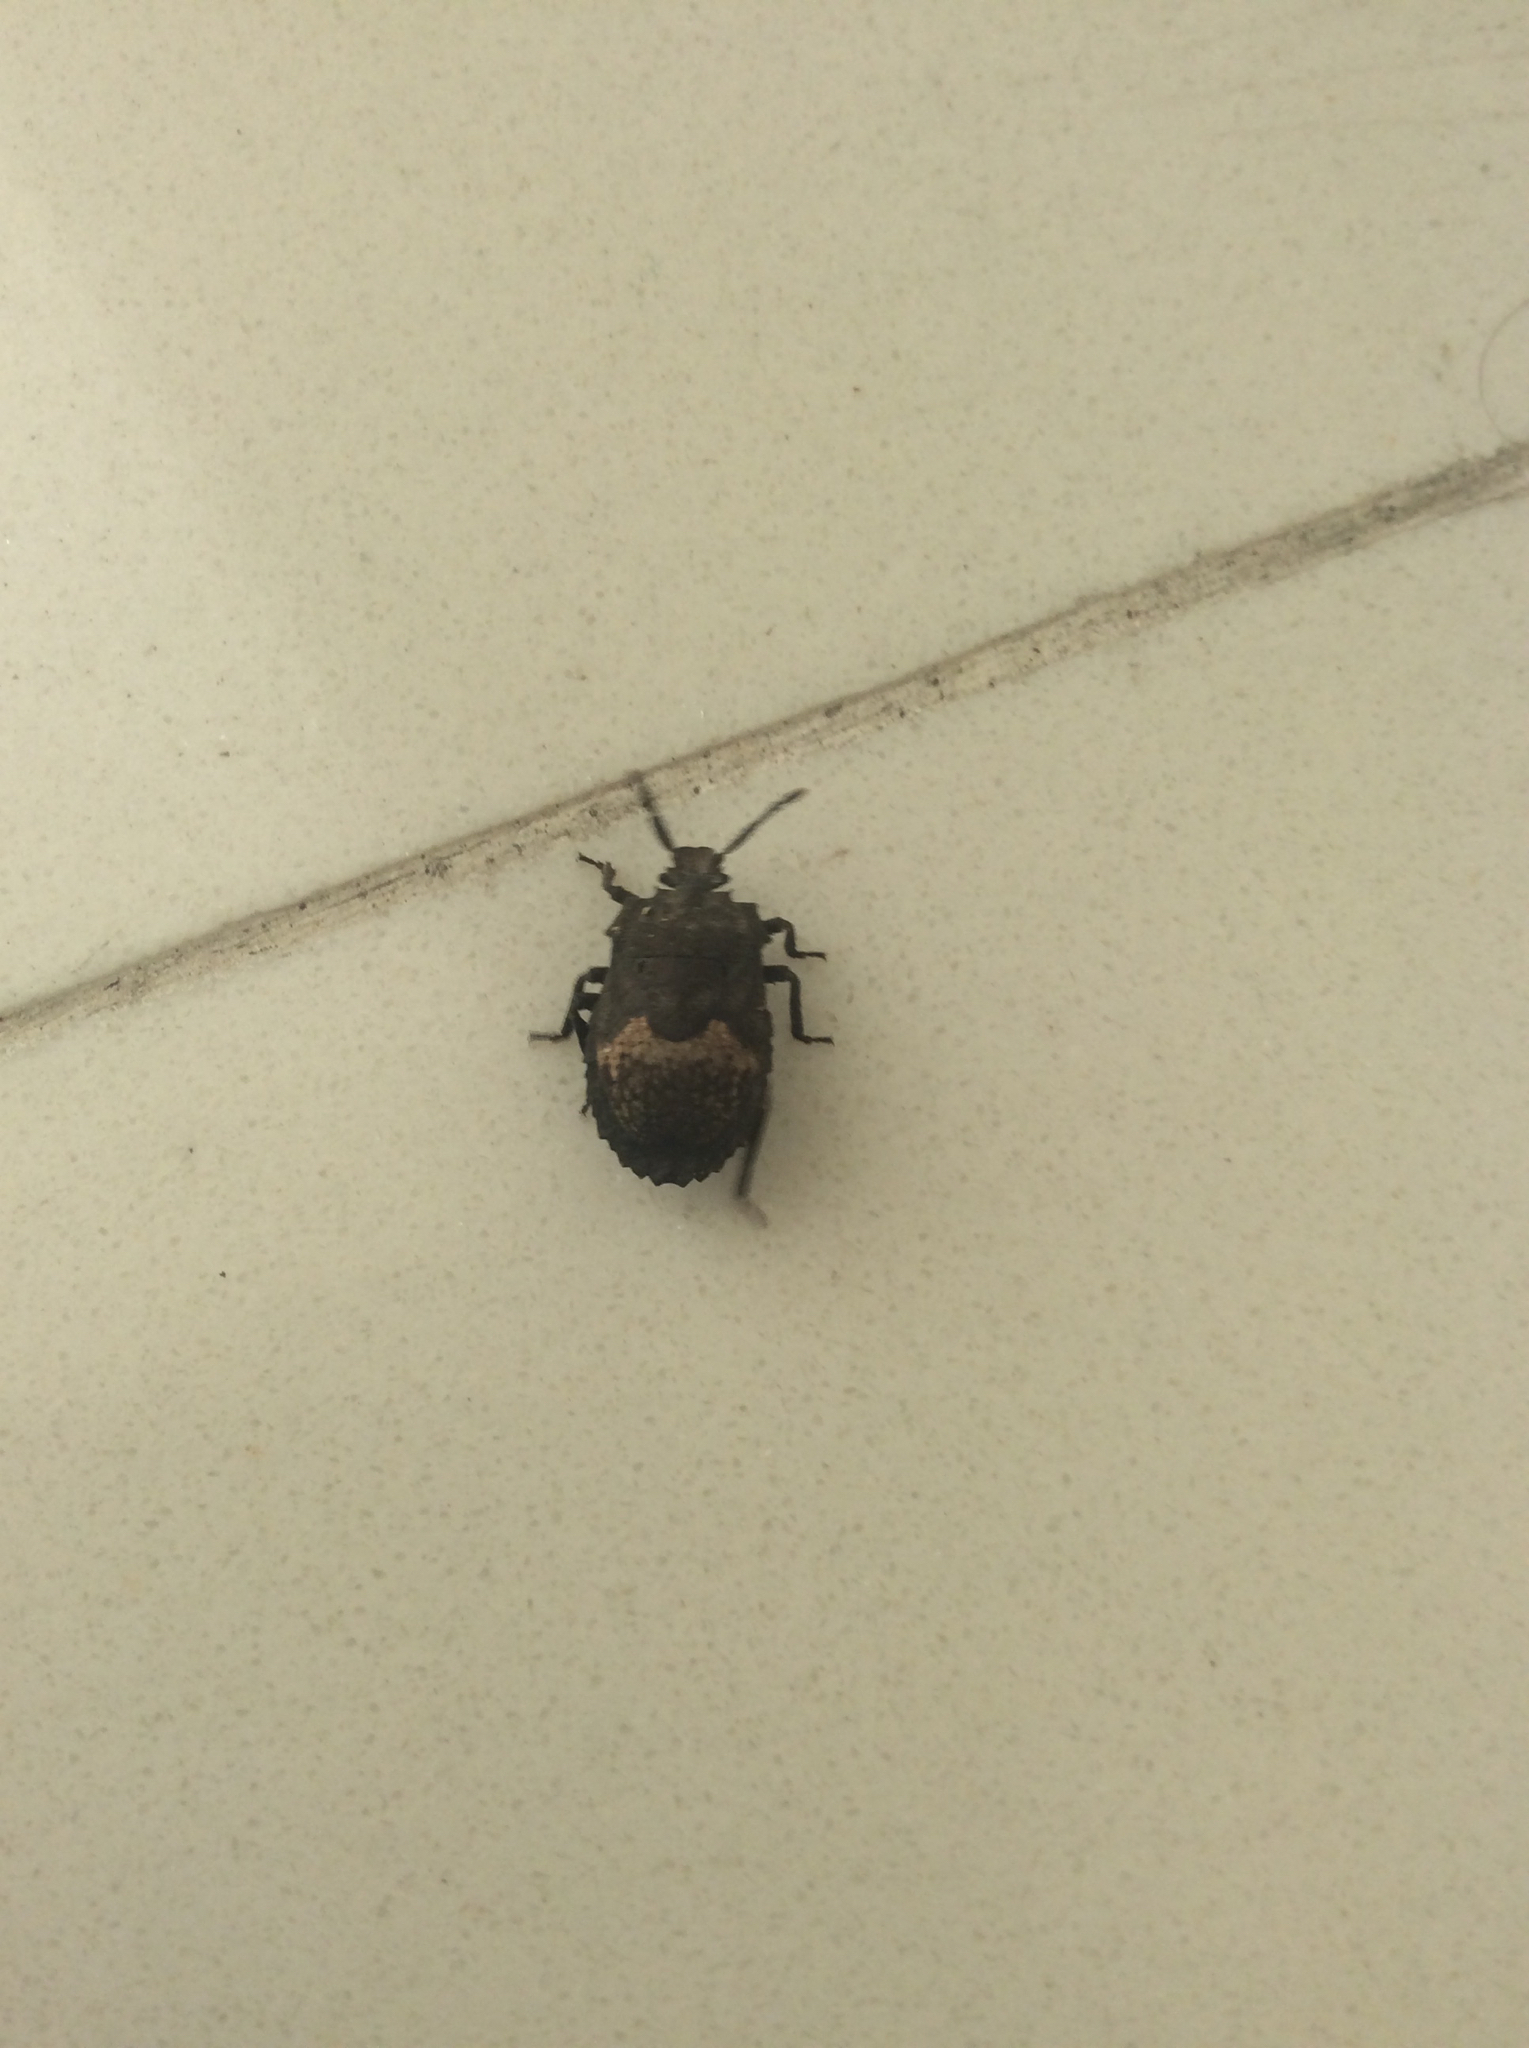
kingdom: Animalia
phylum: Arthropoda
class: Insecta
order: Hemiptera
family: Dinidoridae
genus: Megymenum
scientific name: Megymenum spinosum
